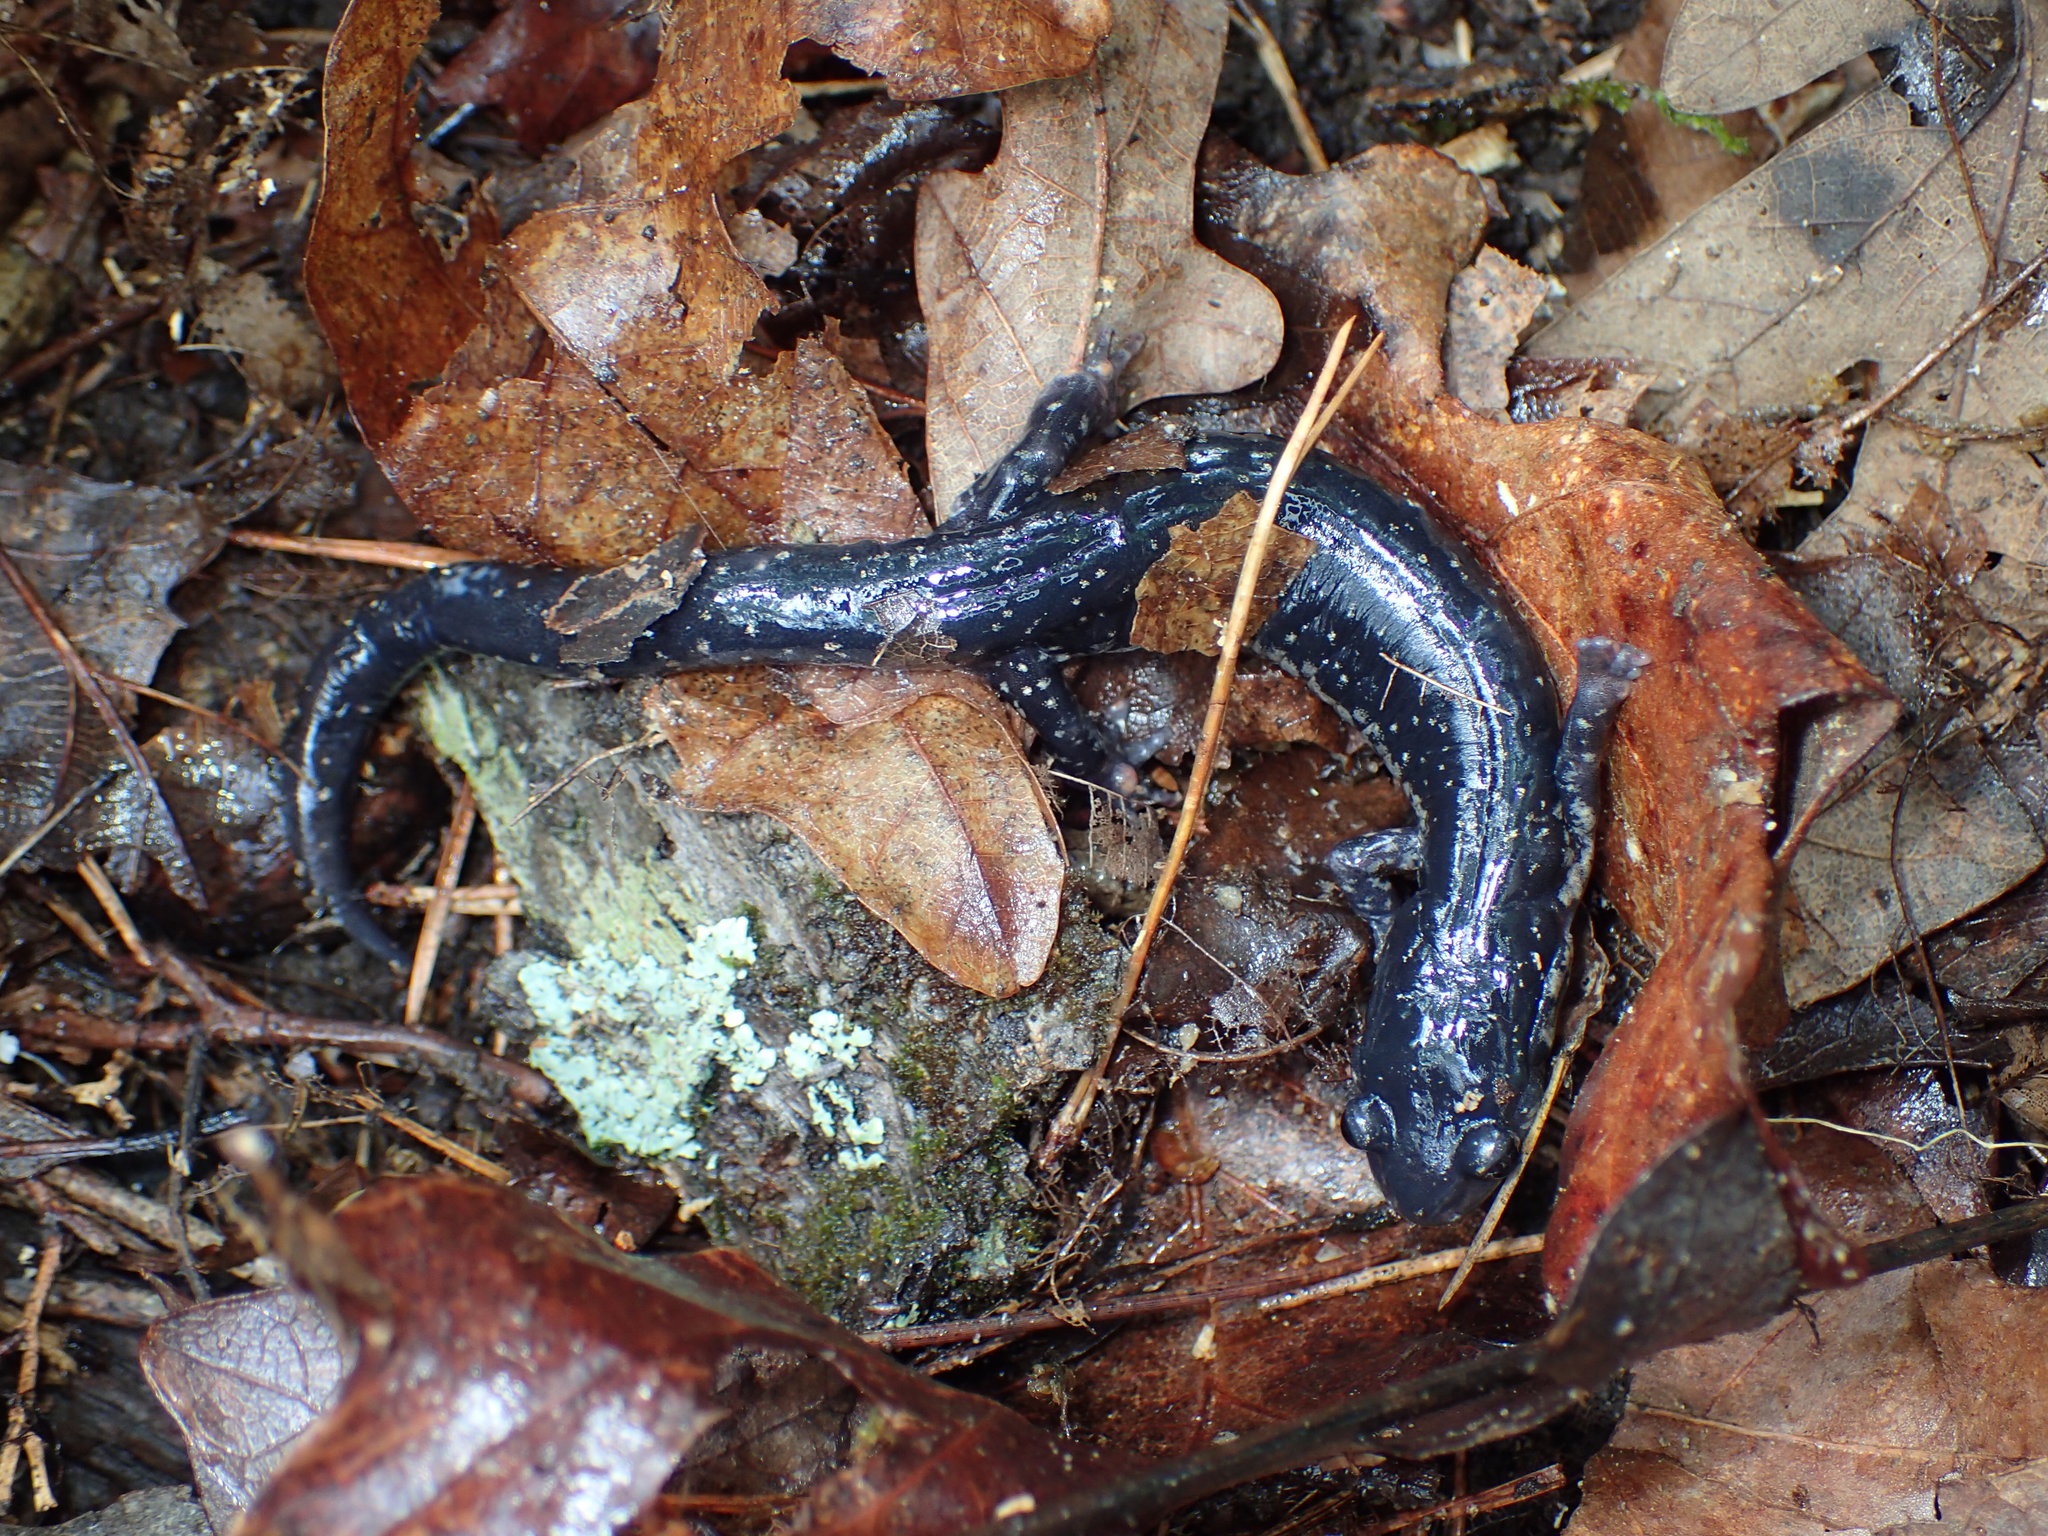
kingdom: Animalia
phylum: Chordata
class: Amphibia
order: Caudata
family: Plethodontidae
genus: Plethodon
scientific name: Plethodon glutinosus
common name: Northern slimy salamander
